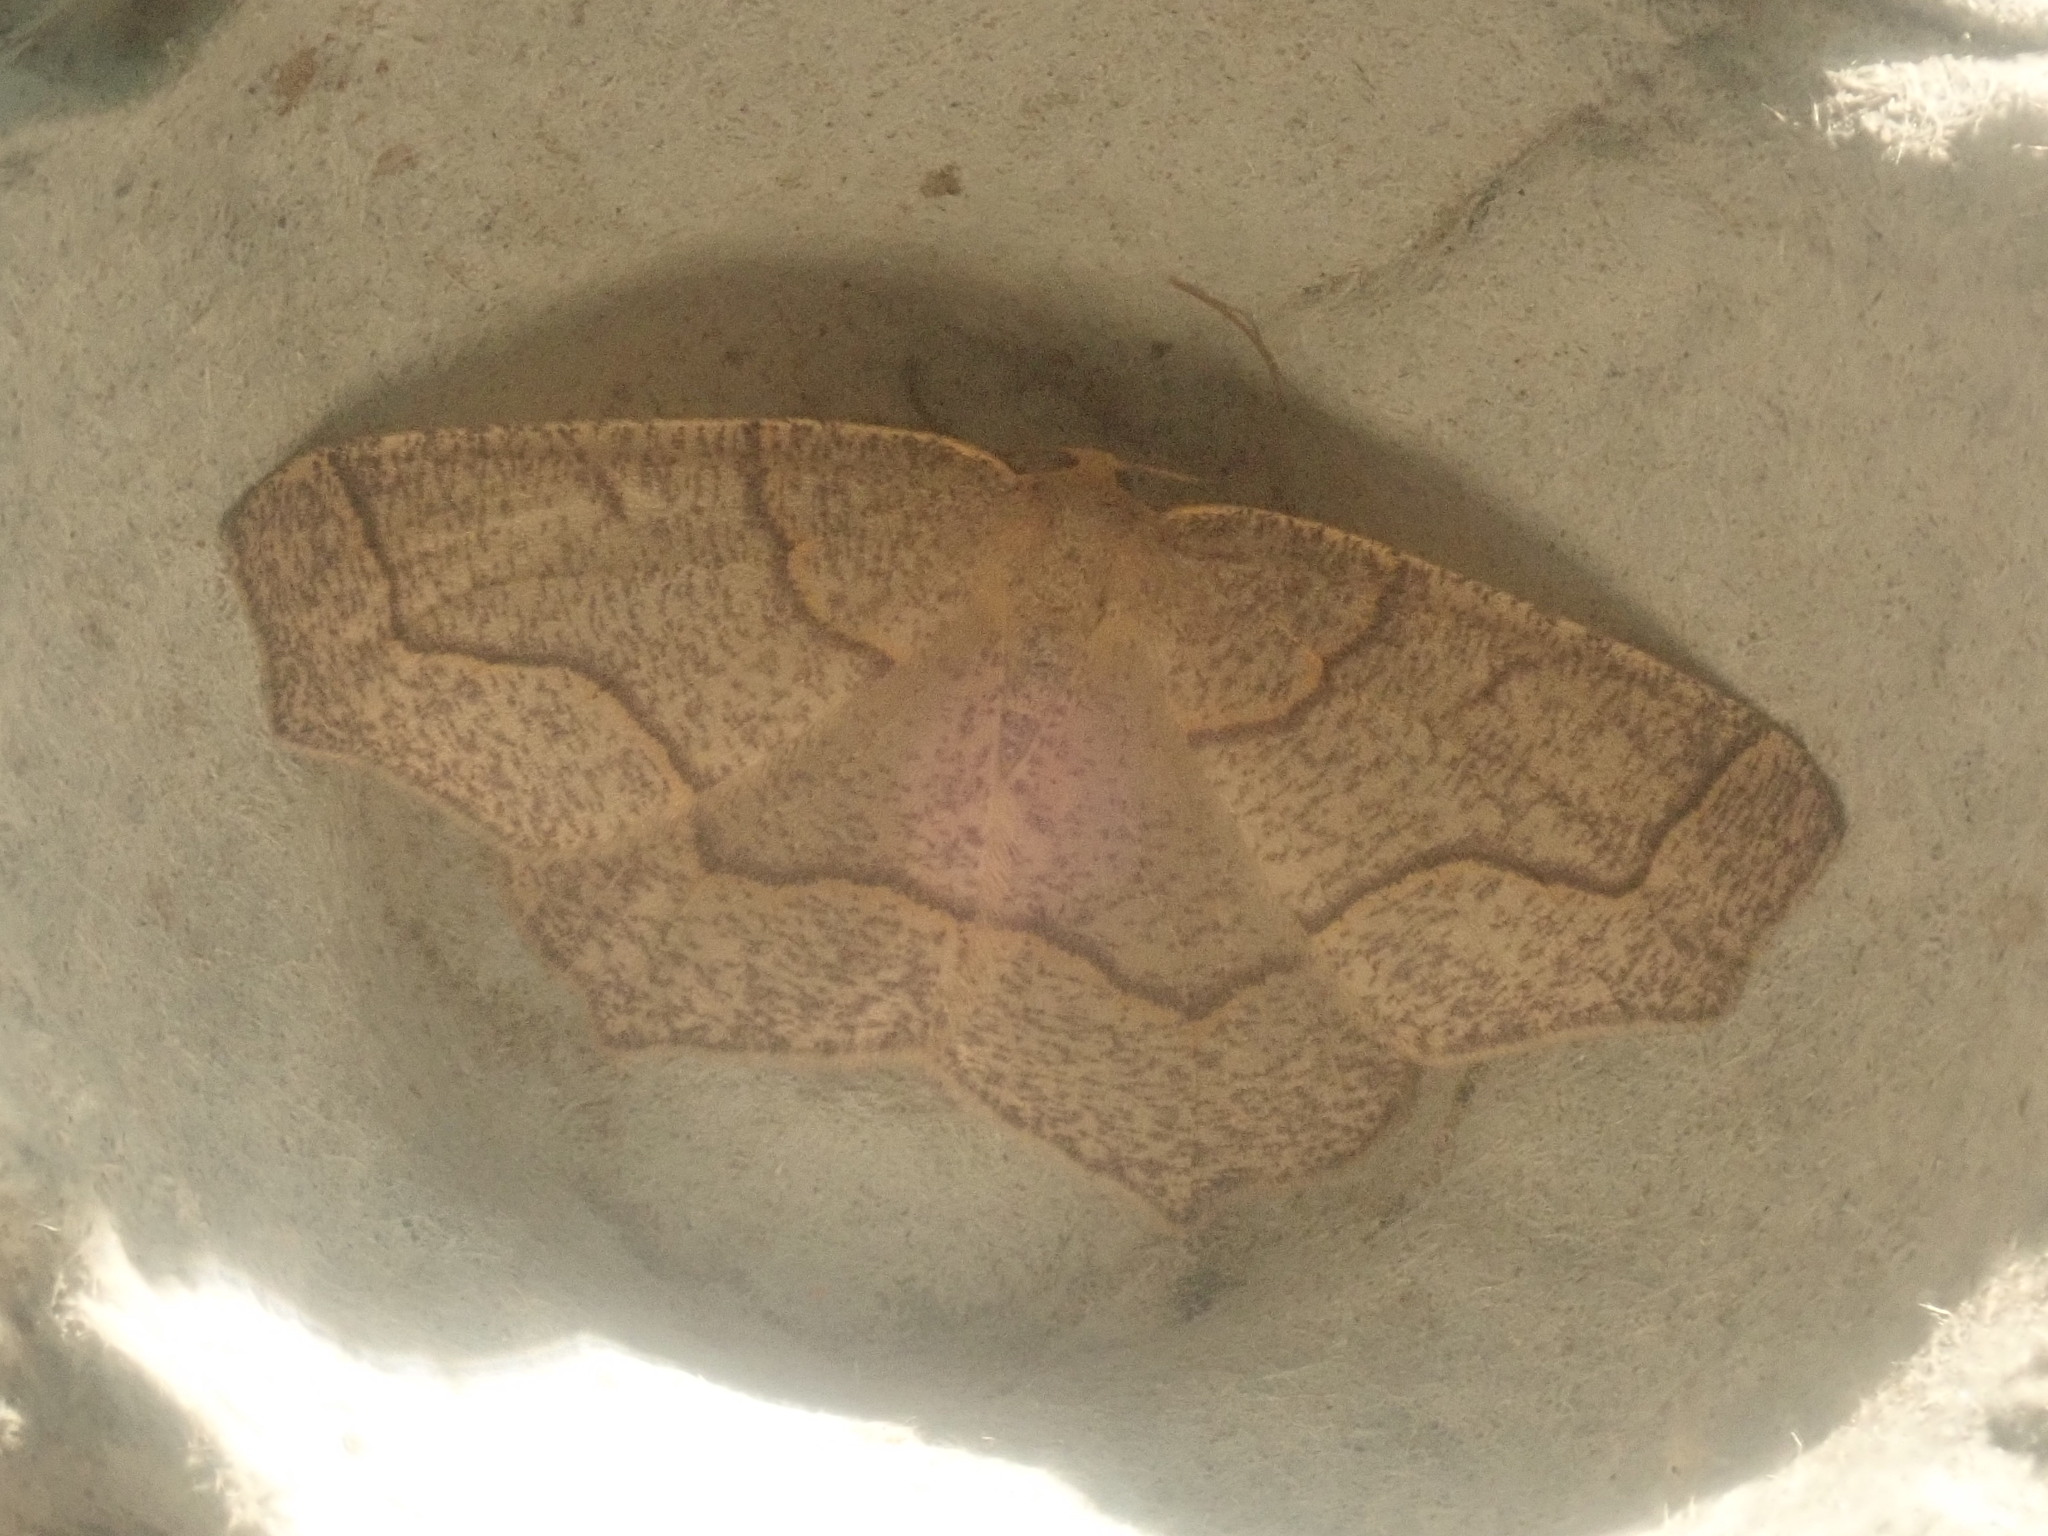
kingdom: Animalia
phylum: Arthropoda
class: Insecta
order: Lepidoptera
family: Geometridae
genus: Lambdina
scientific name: Lambdina fiscellaria
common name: Hemlock looper
